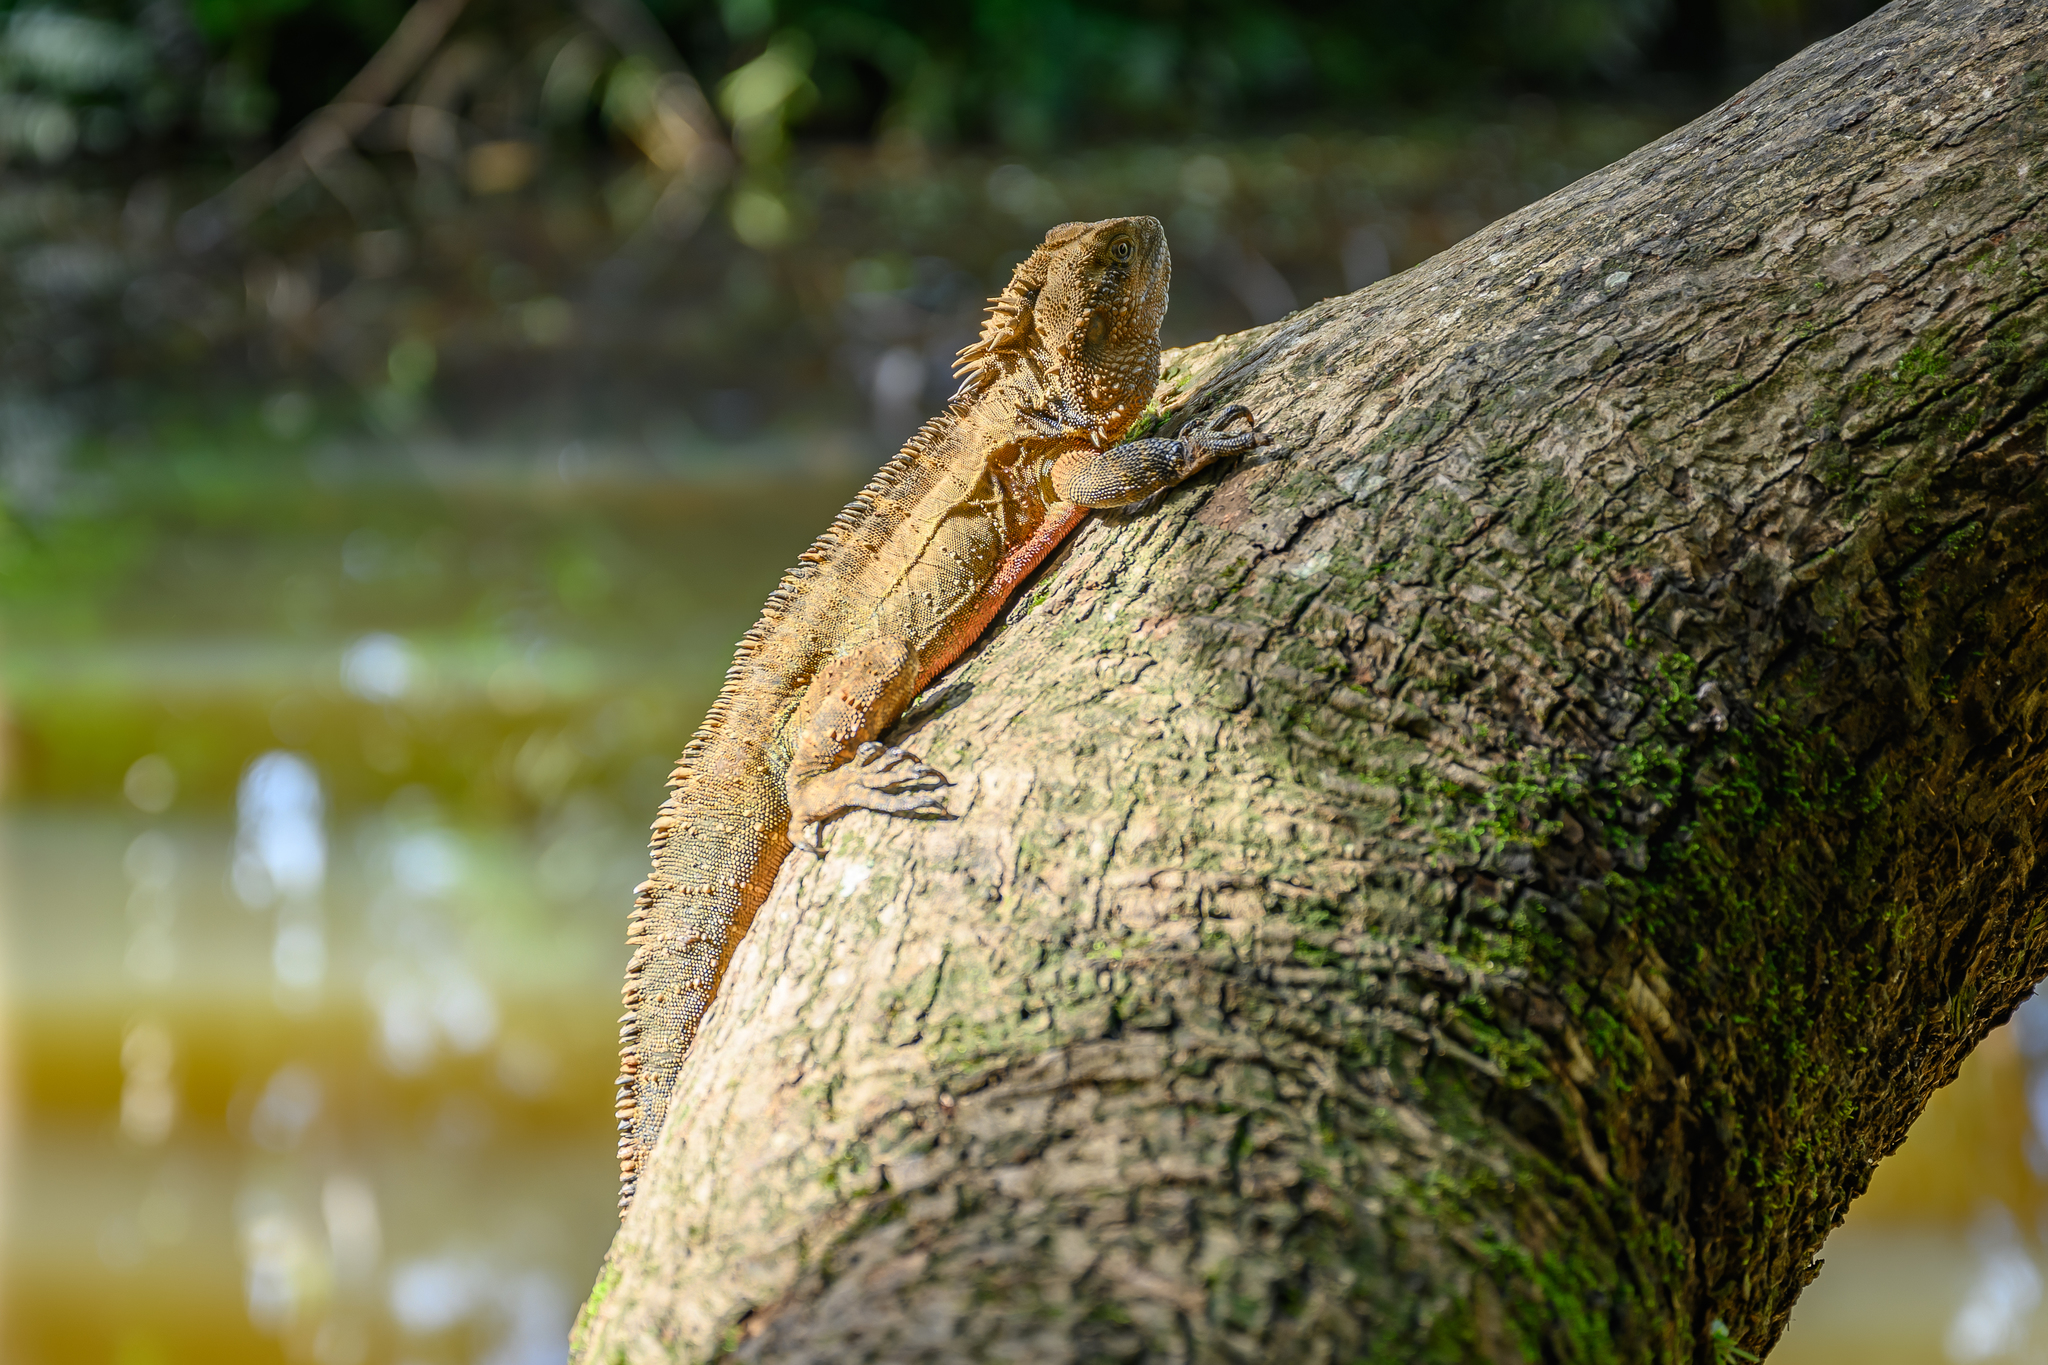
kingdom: Animalia
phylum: Chordata
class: Squamata
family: Agamidae
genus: Intellagama
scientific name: Intellagama lesueurii
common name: Eastern water dragon
